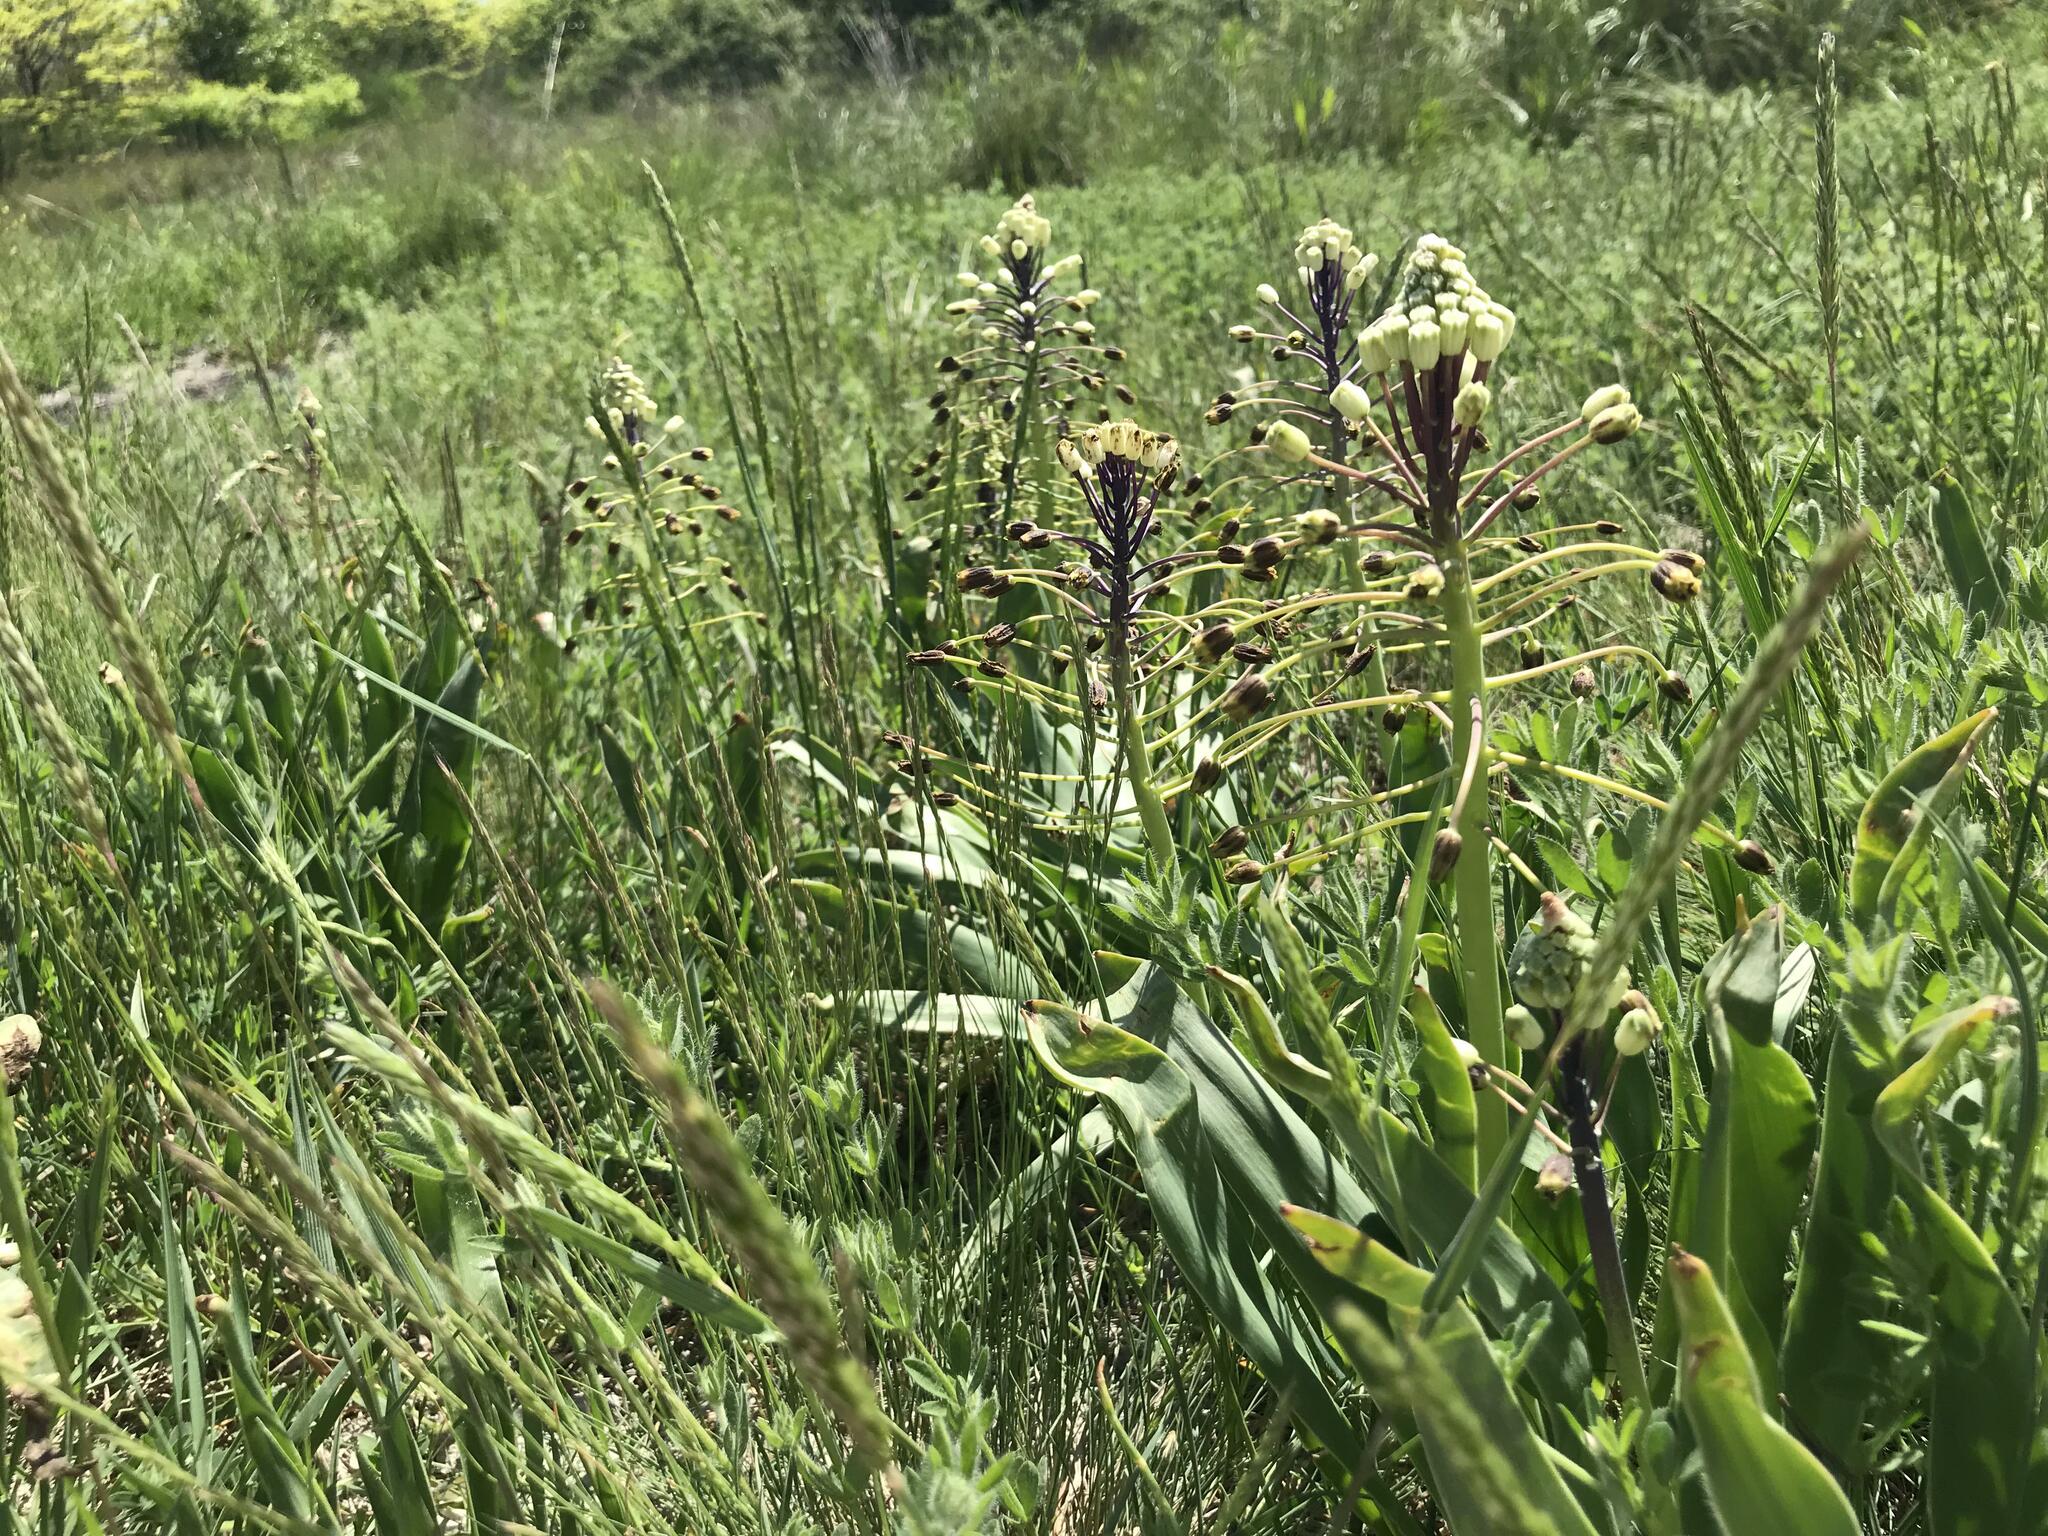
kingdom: Plantae
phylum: Tracheophyta
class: Liliopsida
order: Asparagales
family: Asparagaceae
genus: Bellevalia
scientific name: Bellevalia speciosa
